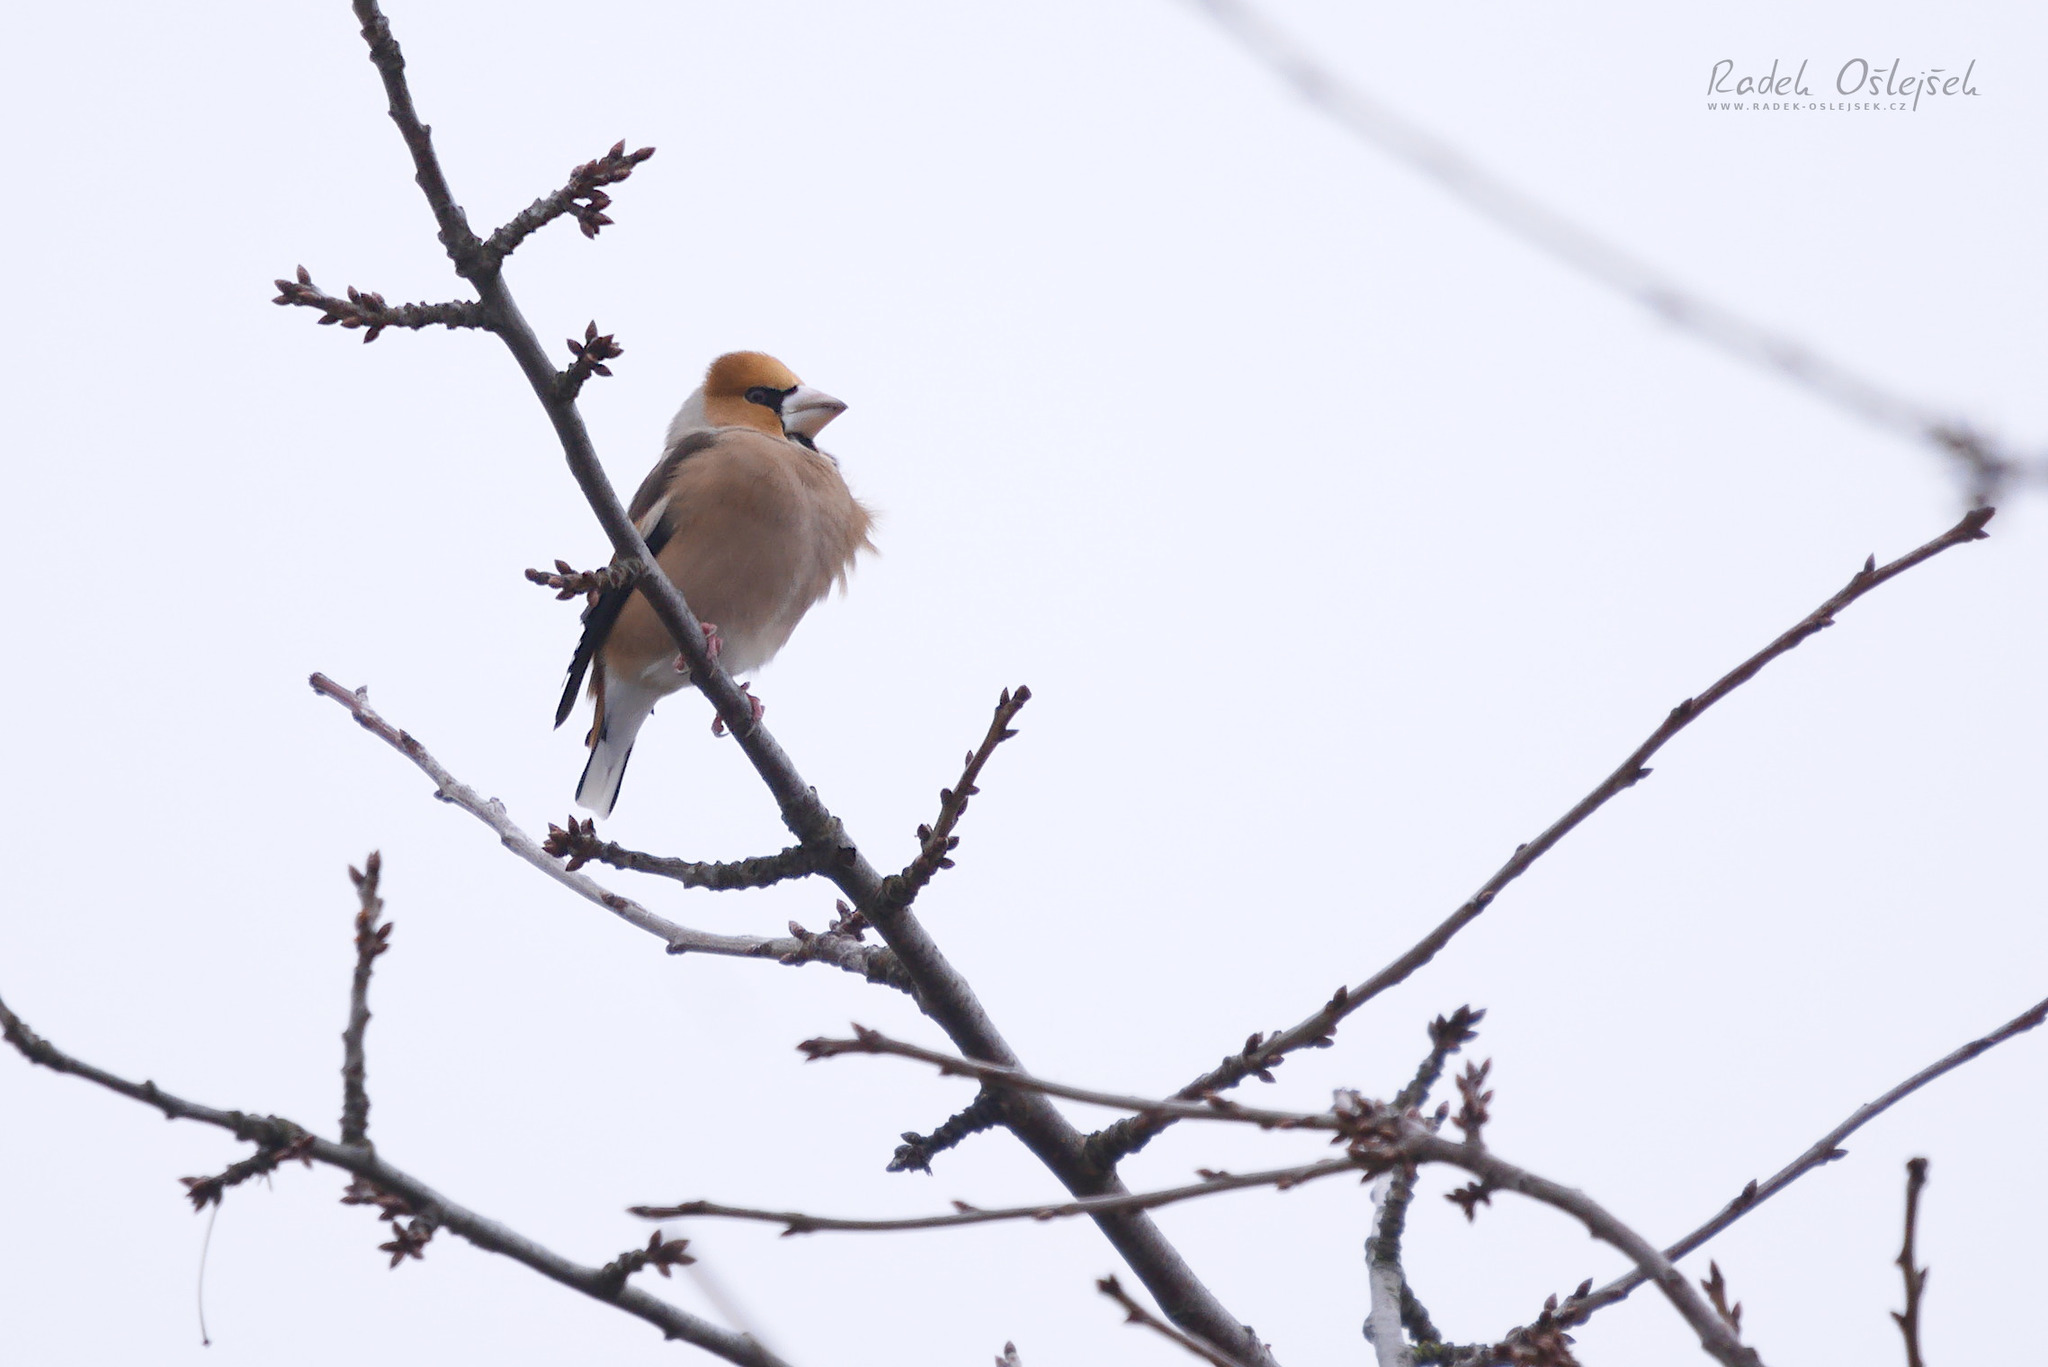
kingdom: Animalia
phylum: Chordata
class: Aves
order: Passeriformes
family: Fringillidae
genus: Coccothraustes
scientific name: Coccothraustes coccothraustes
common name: Hawfinch
